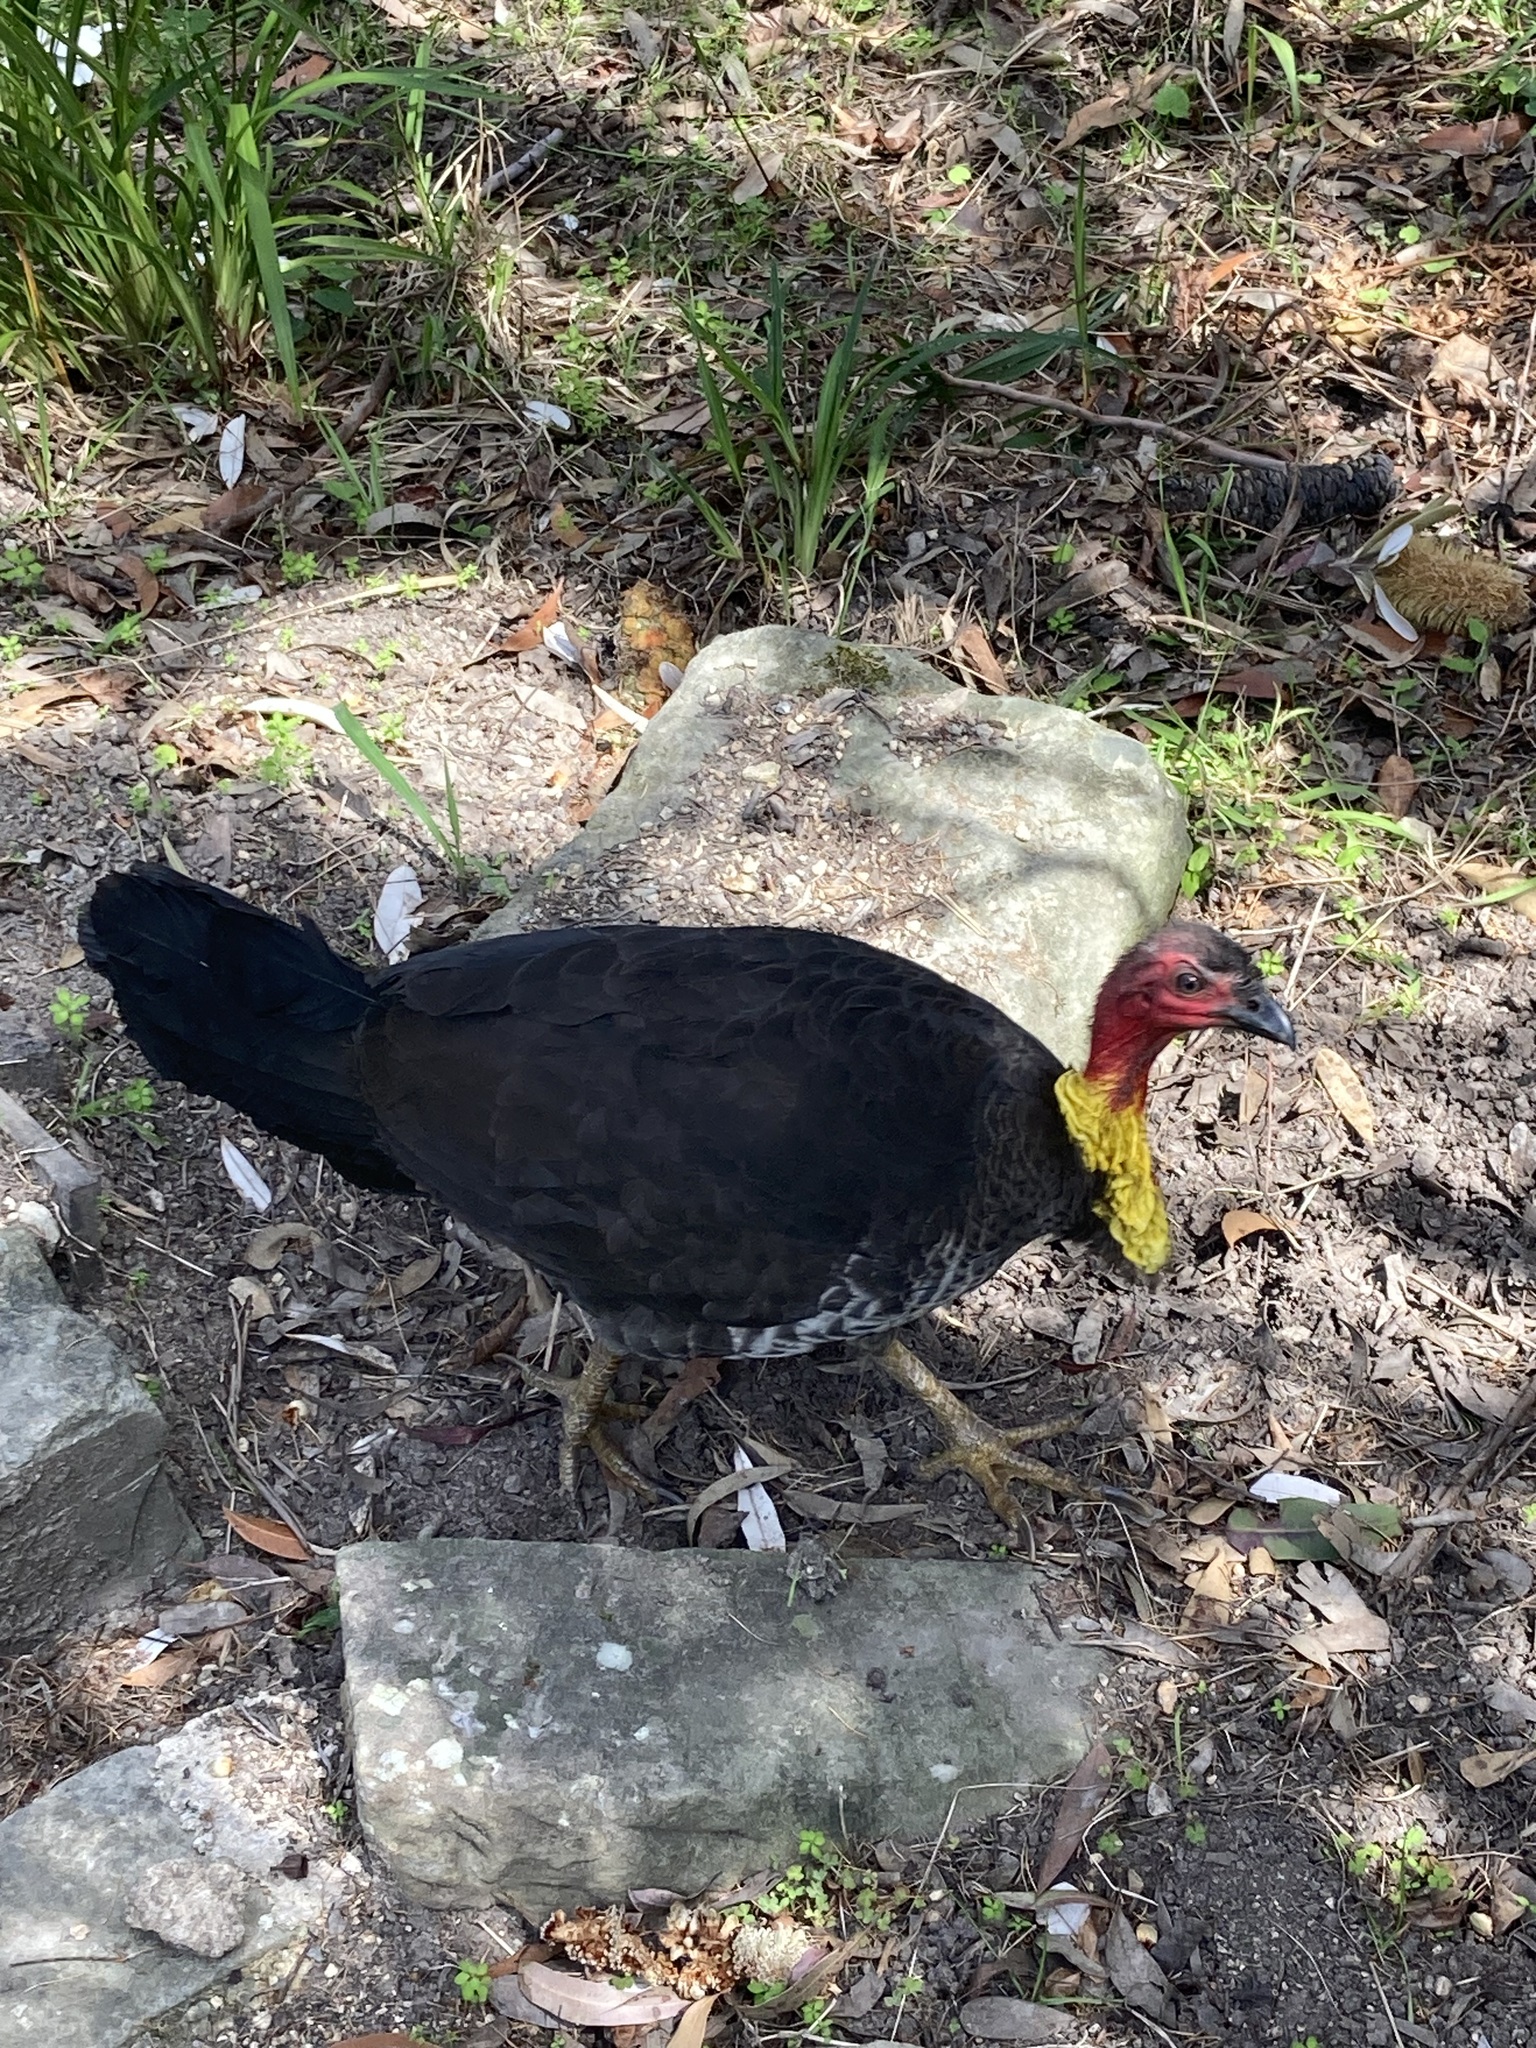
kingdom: Animalia
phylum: Chordata
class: Aves
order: Galliformes
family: Megapodiidae
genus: Alectura
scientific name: Alectura lathami
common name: Australian brushturkey
